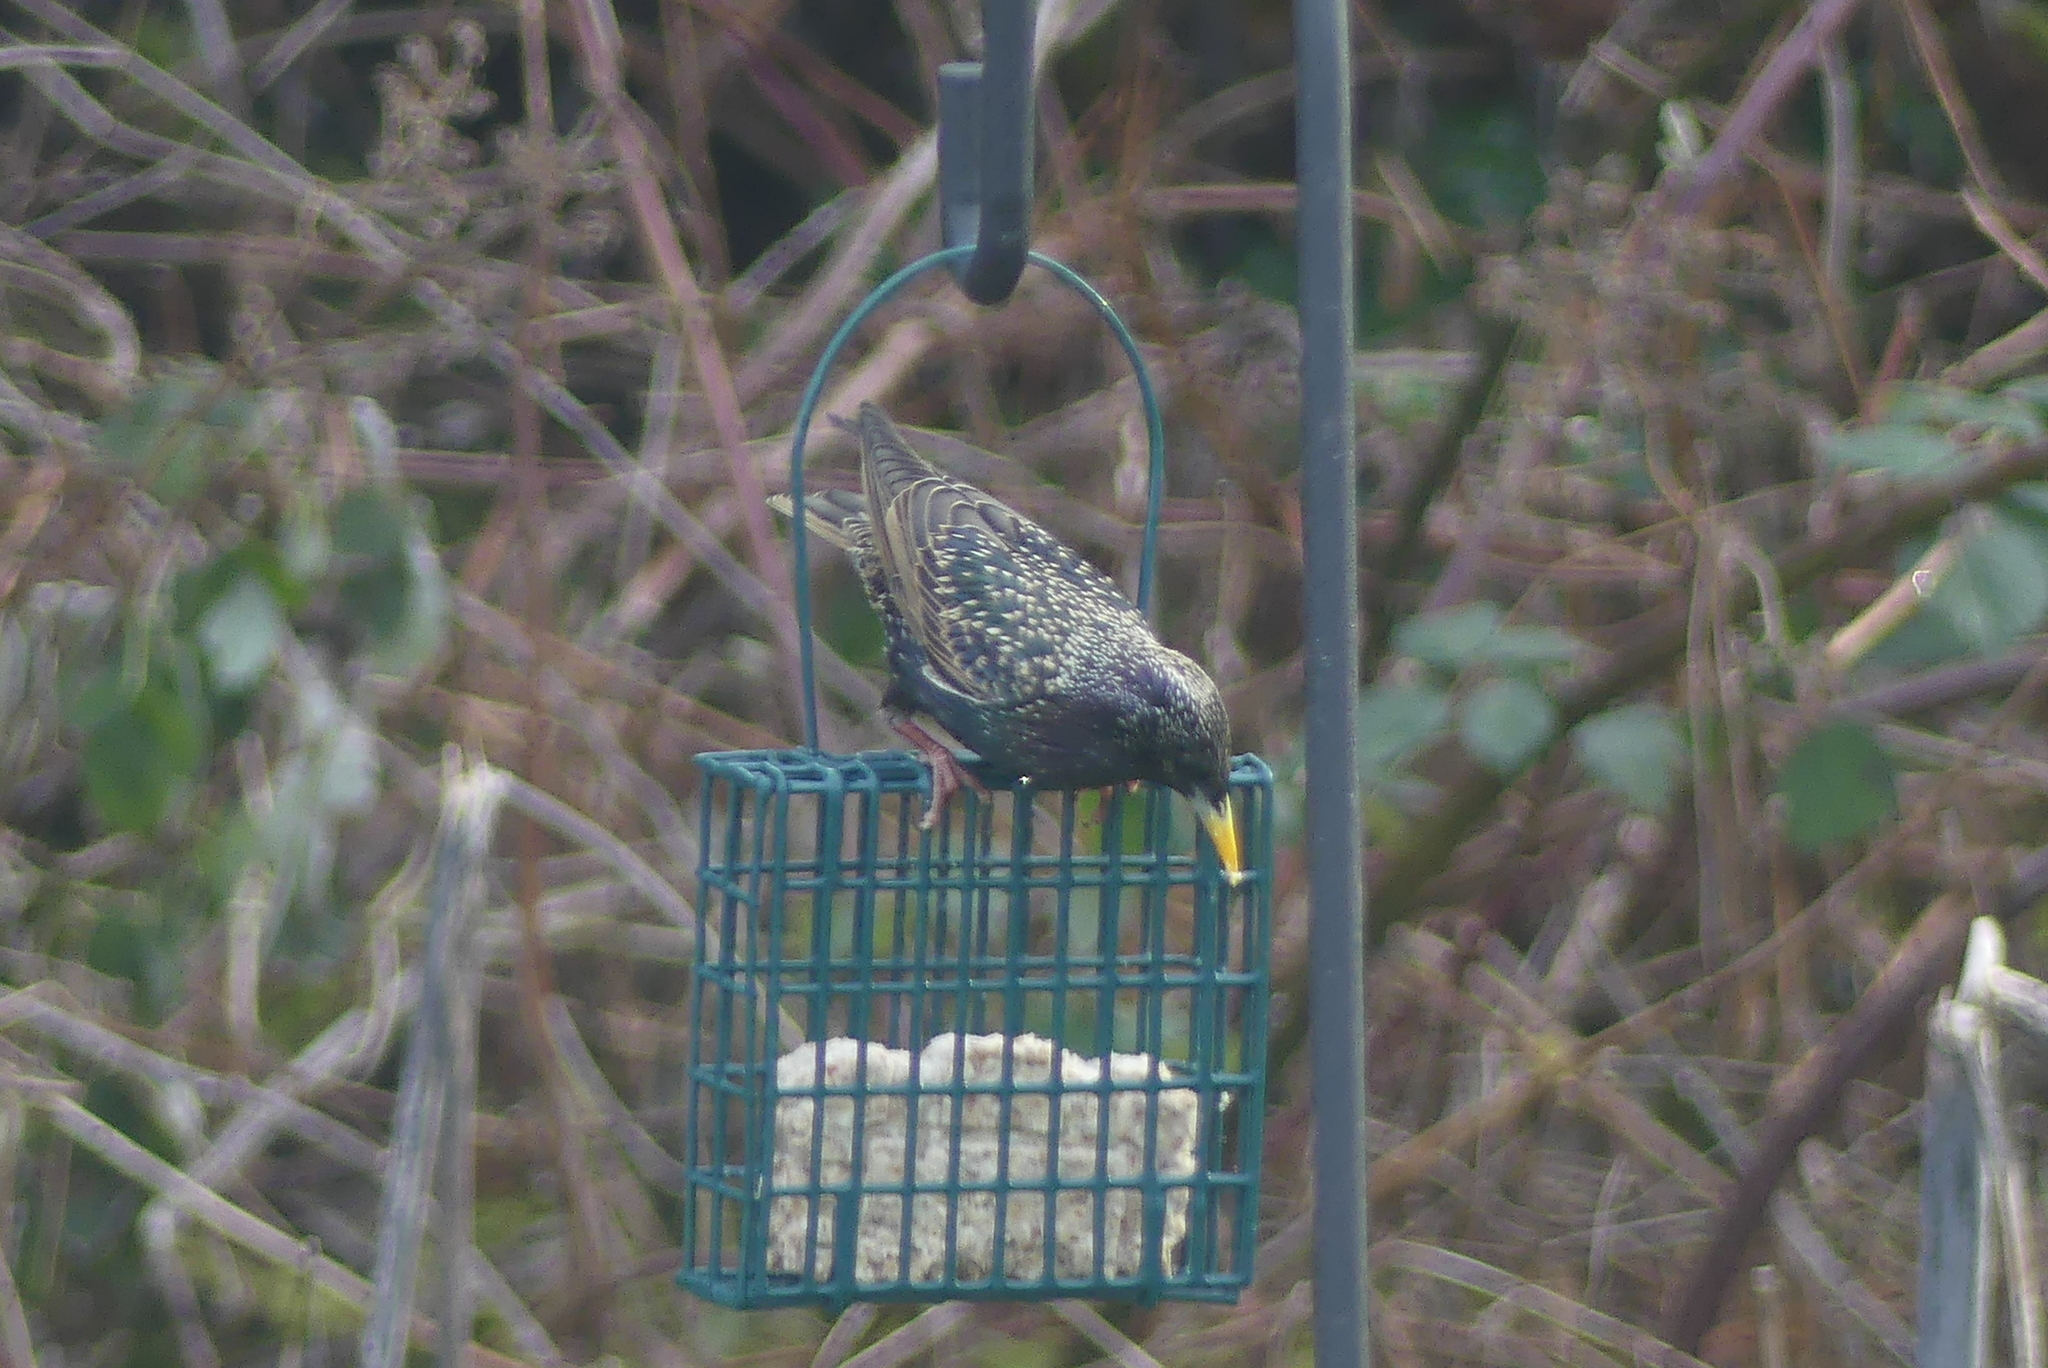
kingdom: Animalia
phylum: Chordata
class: Aves
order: Passeriformes
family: Sturnidae
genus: Sturnus
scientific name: Sturnus vulgaris
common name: Common starling
